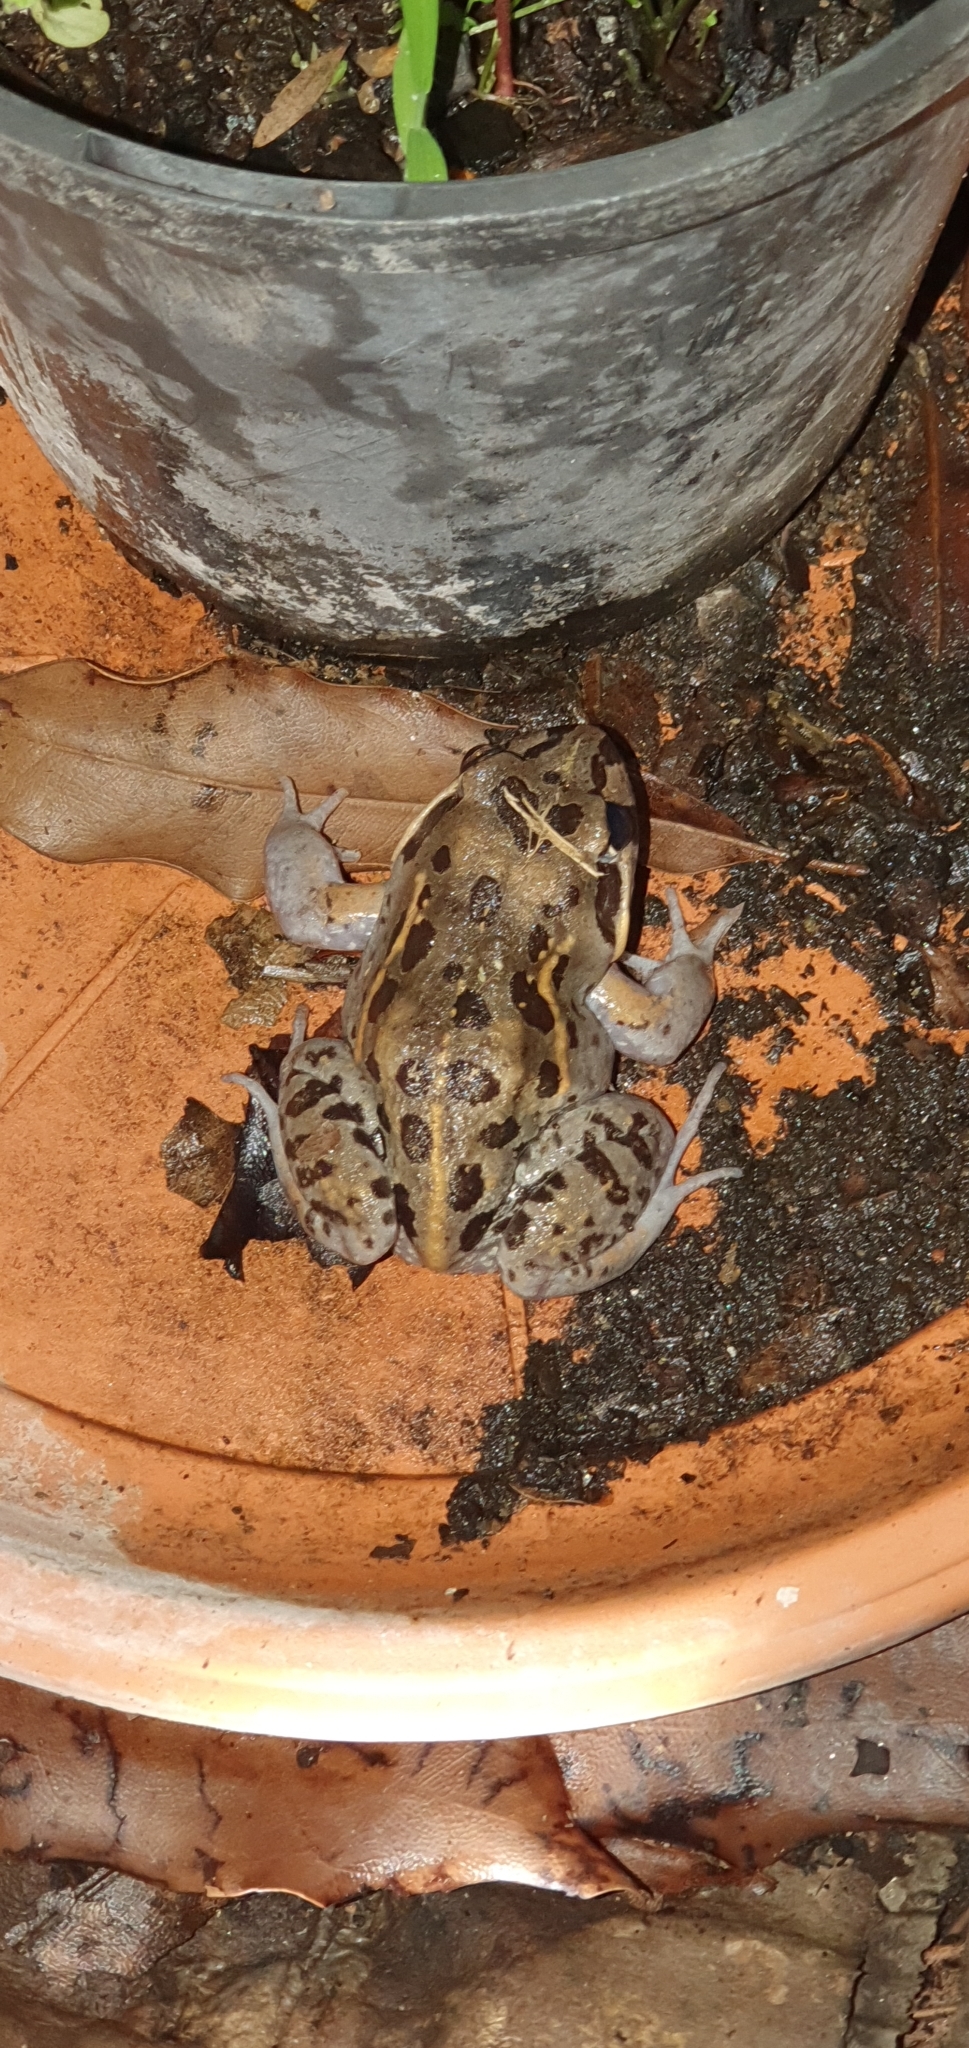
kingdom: Animalia
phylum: Chordata
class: Amphibia
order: Anura
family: Limnodynastidae
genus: Limnodynastes
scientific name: Limnodynastes salmini
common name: Salmon-striped frog
